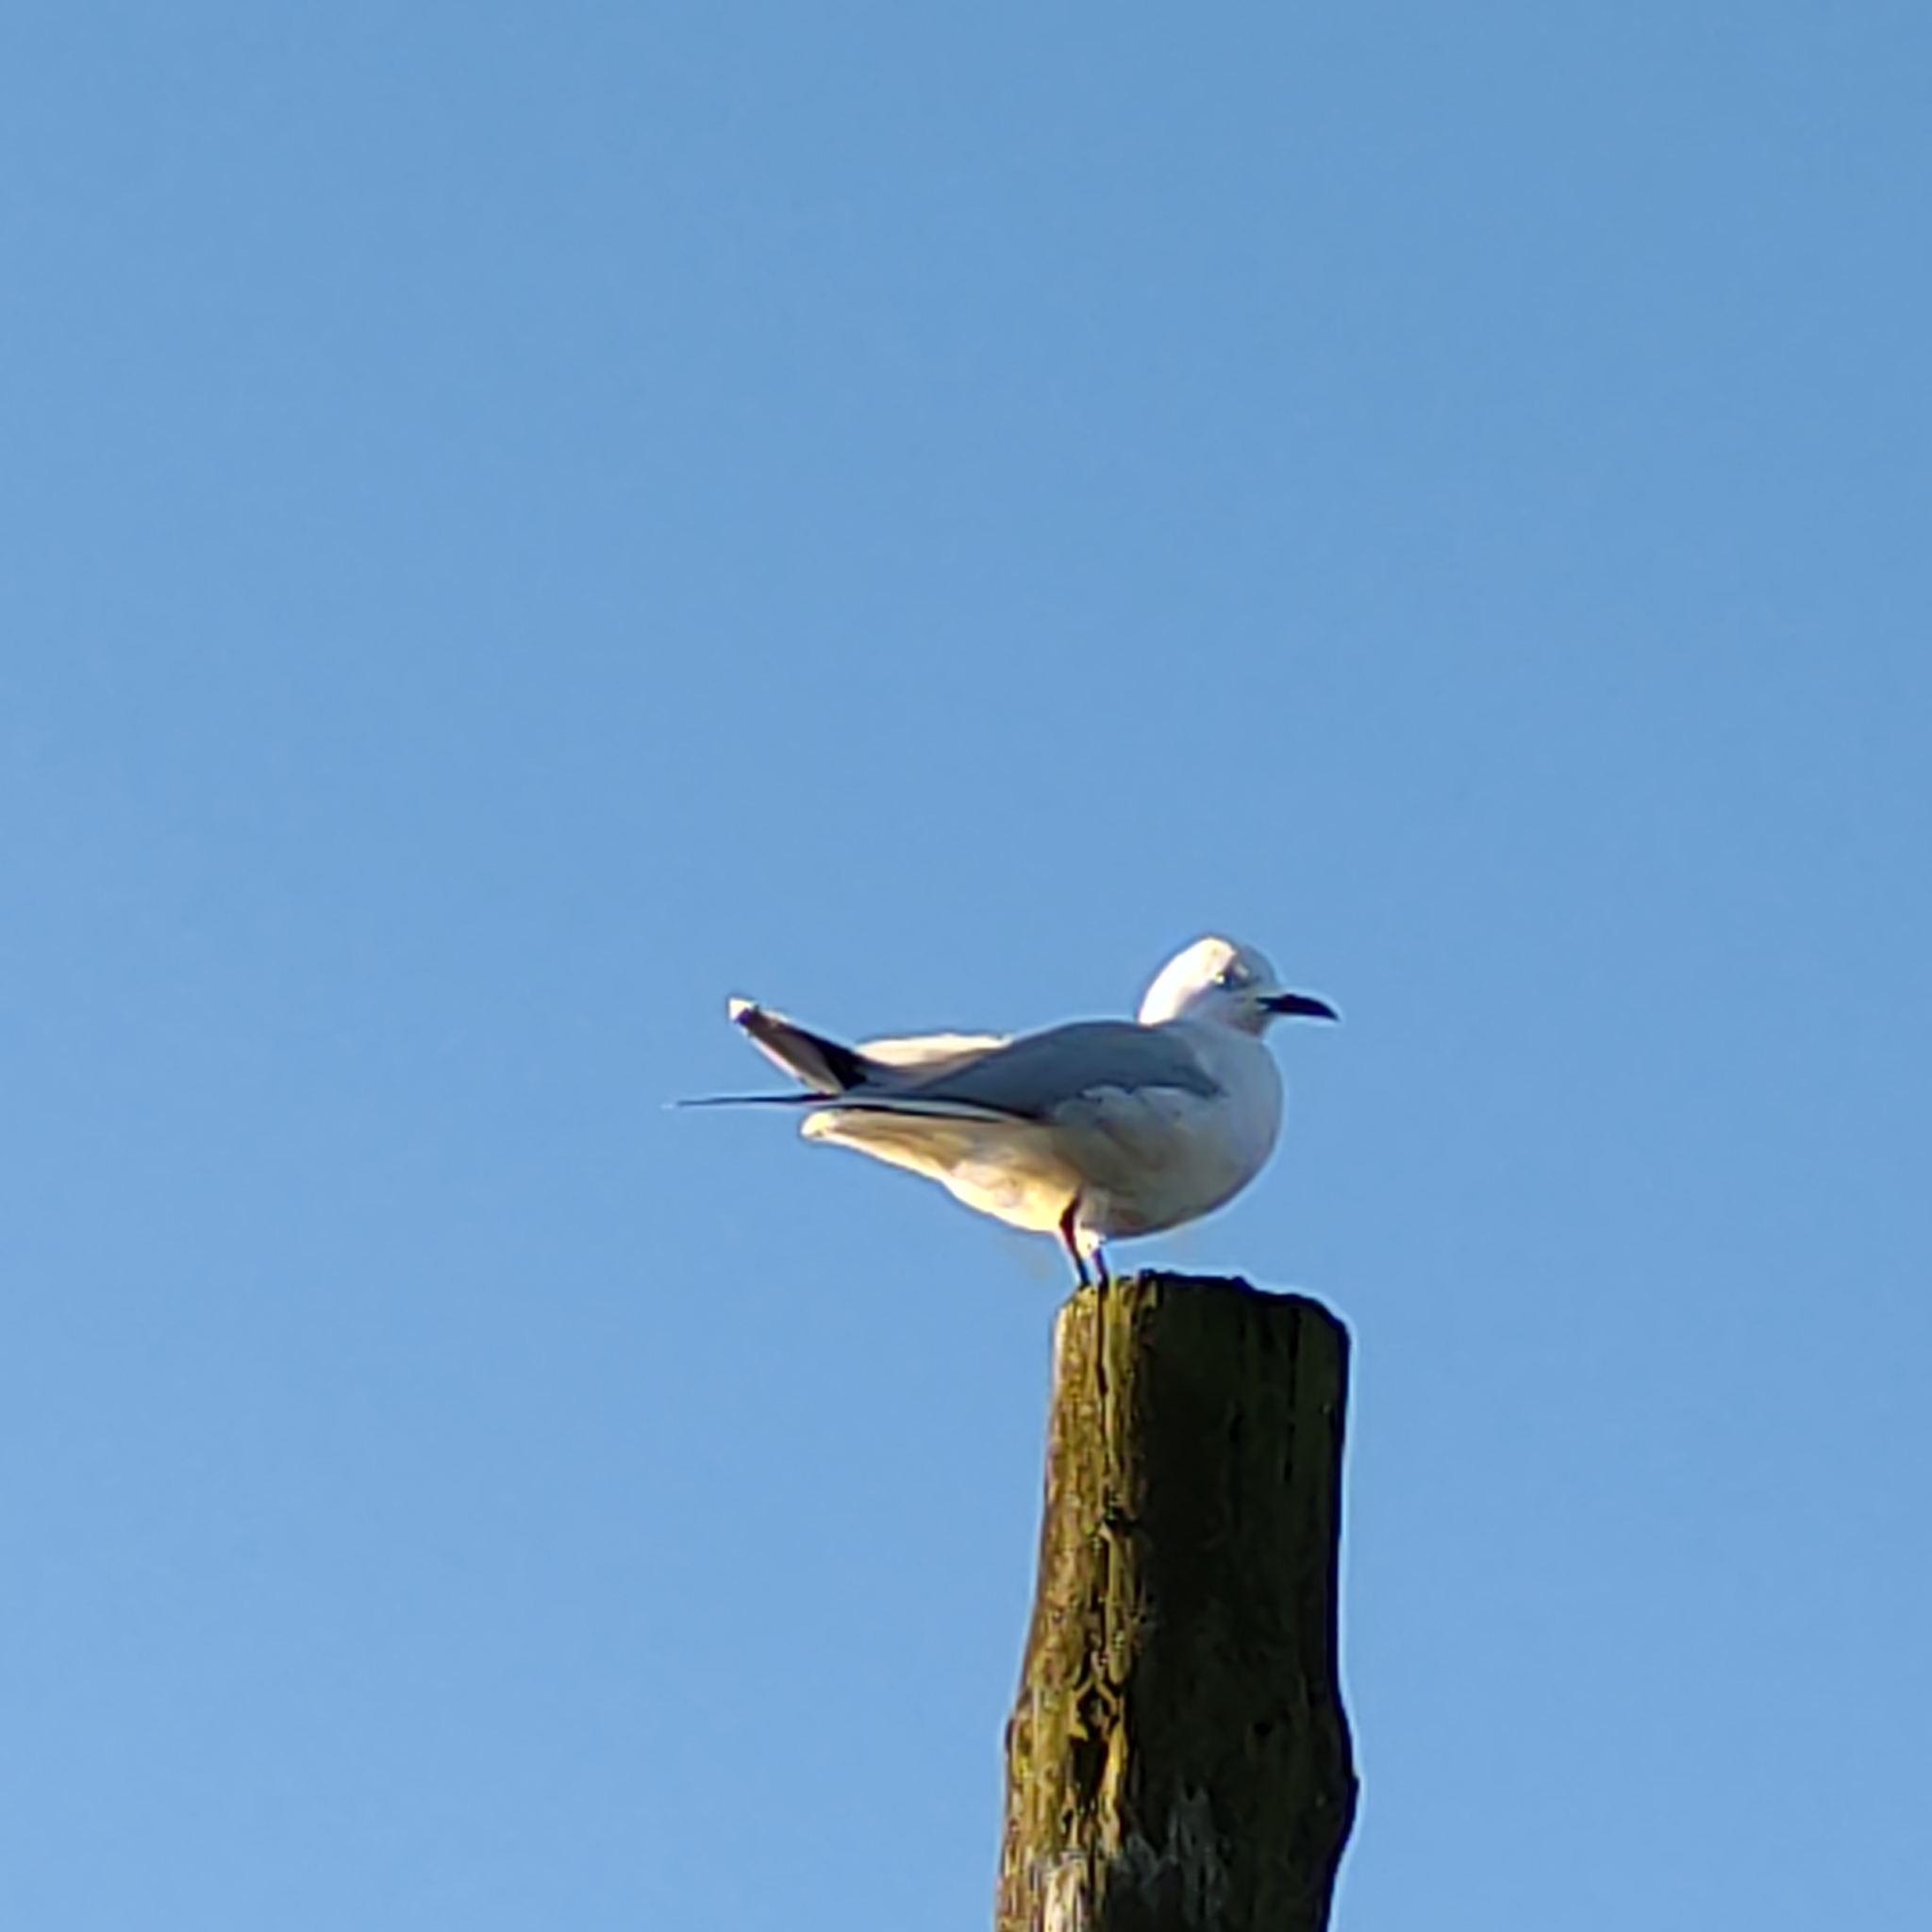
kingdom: Animalia
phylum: Chordata
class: Aves
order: Charadriiformes
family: Laridae
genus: Chroicocephalus
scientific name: Chroicocephalus bulleri
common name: Black-billed gull
